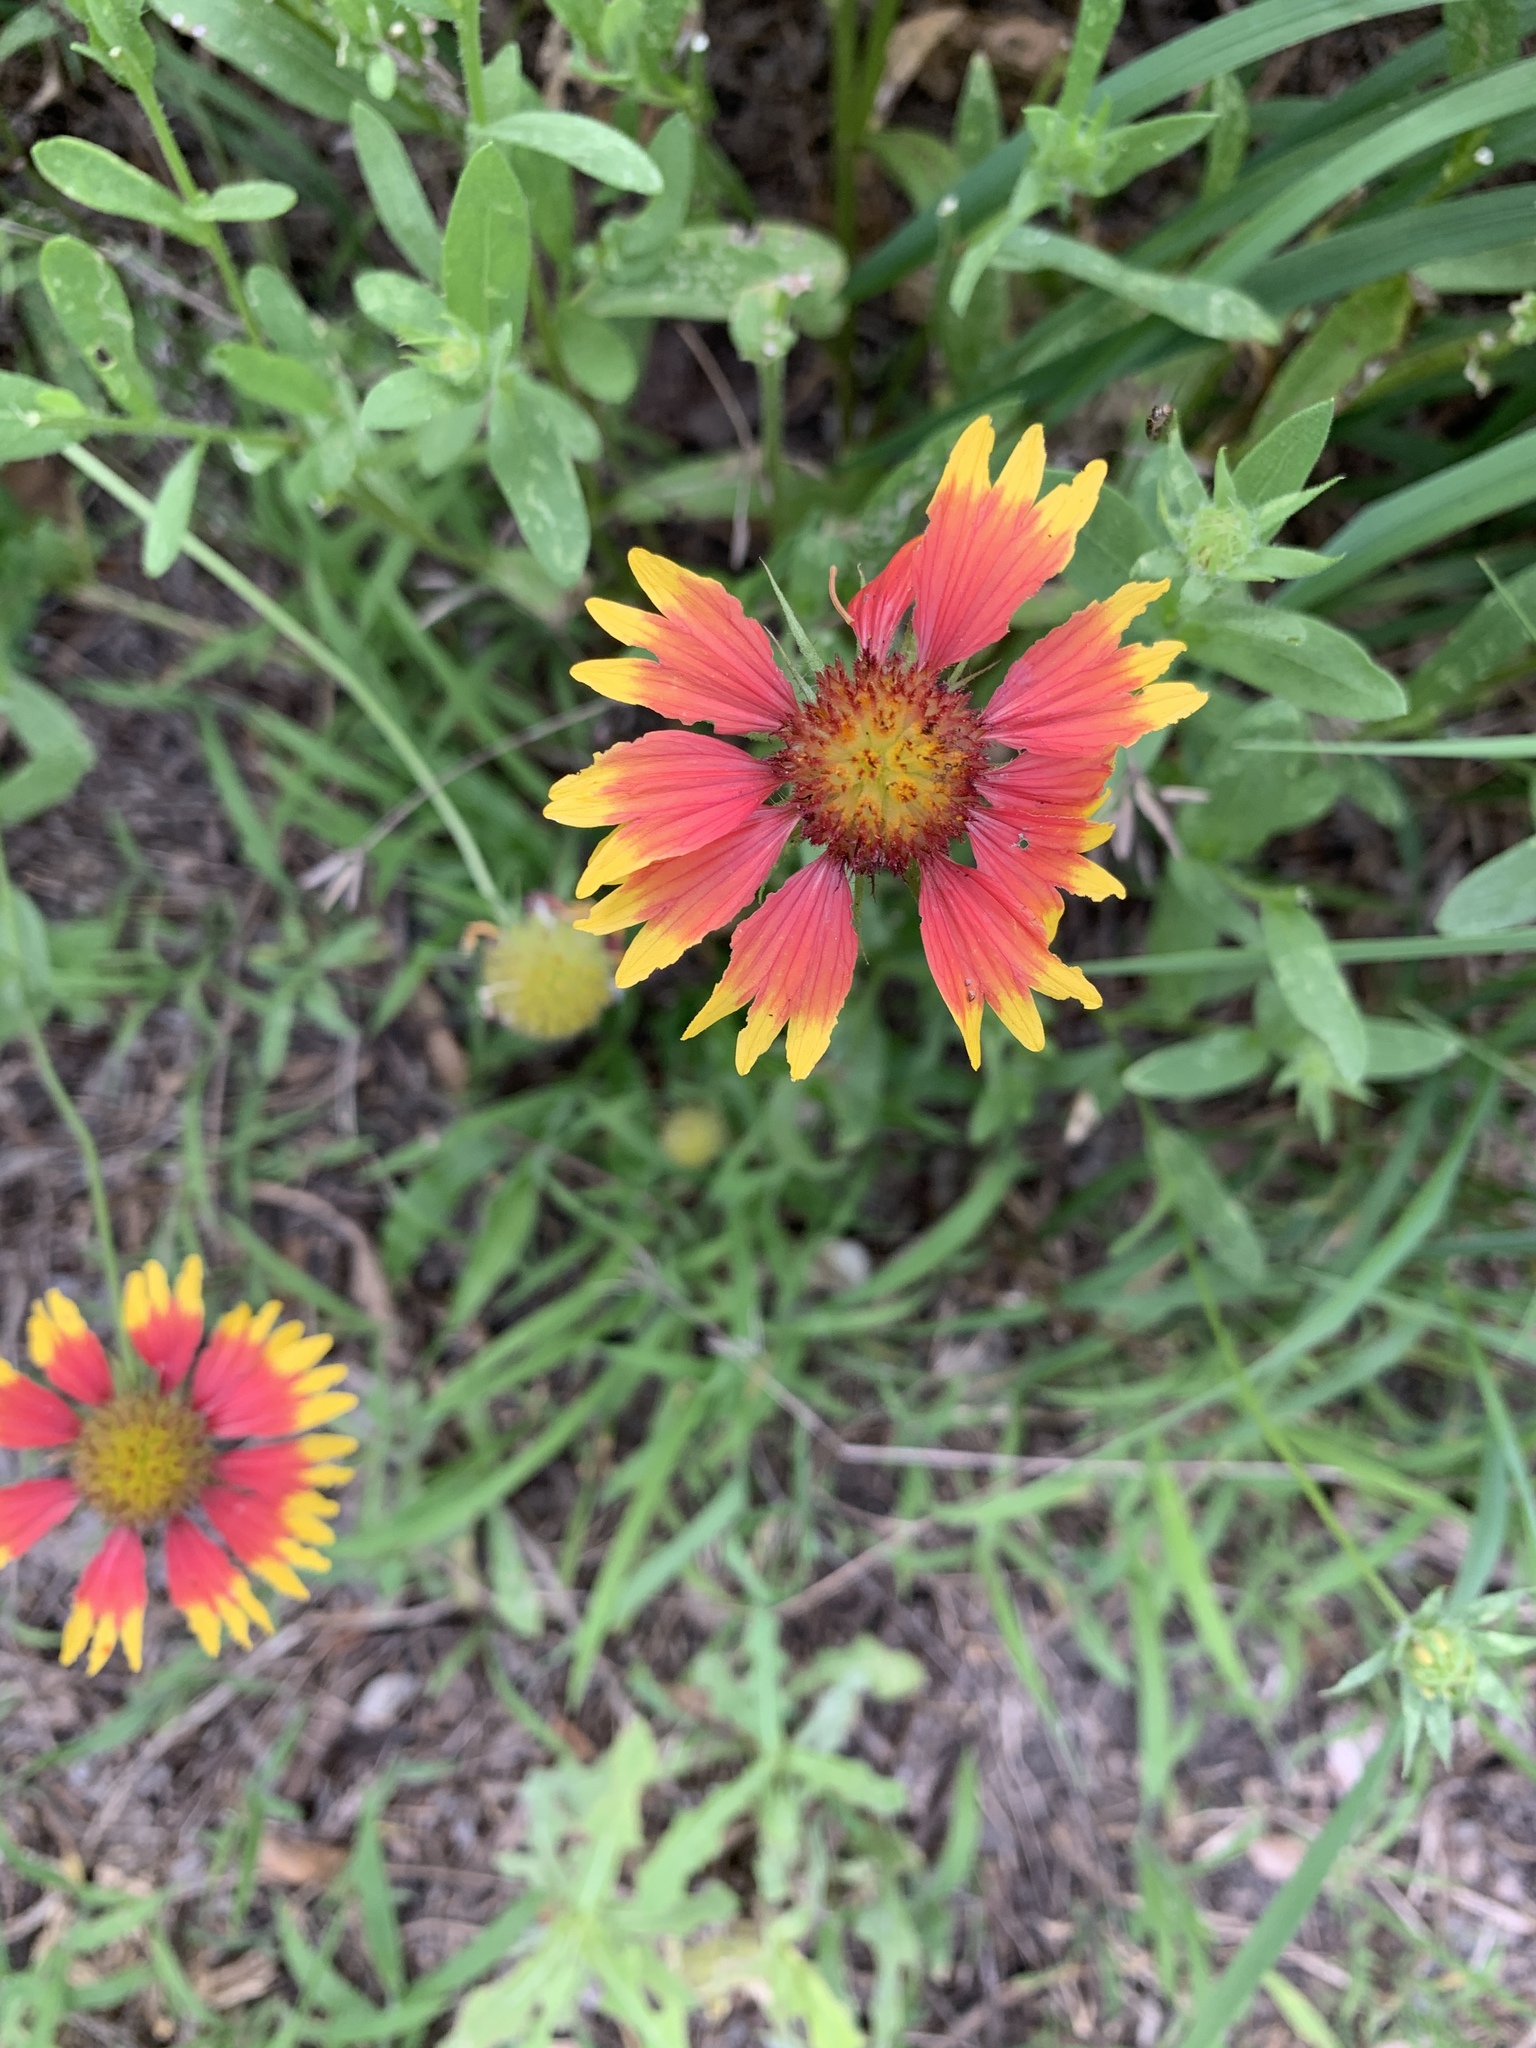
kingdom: Plantae
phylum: Tracheophyta
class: Magnoliopsida
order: Asterales
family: Asteraceae
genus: Gaillardia
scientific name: Gaillardia pulchella
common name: Firewheel
